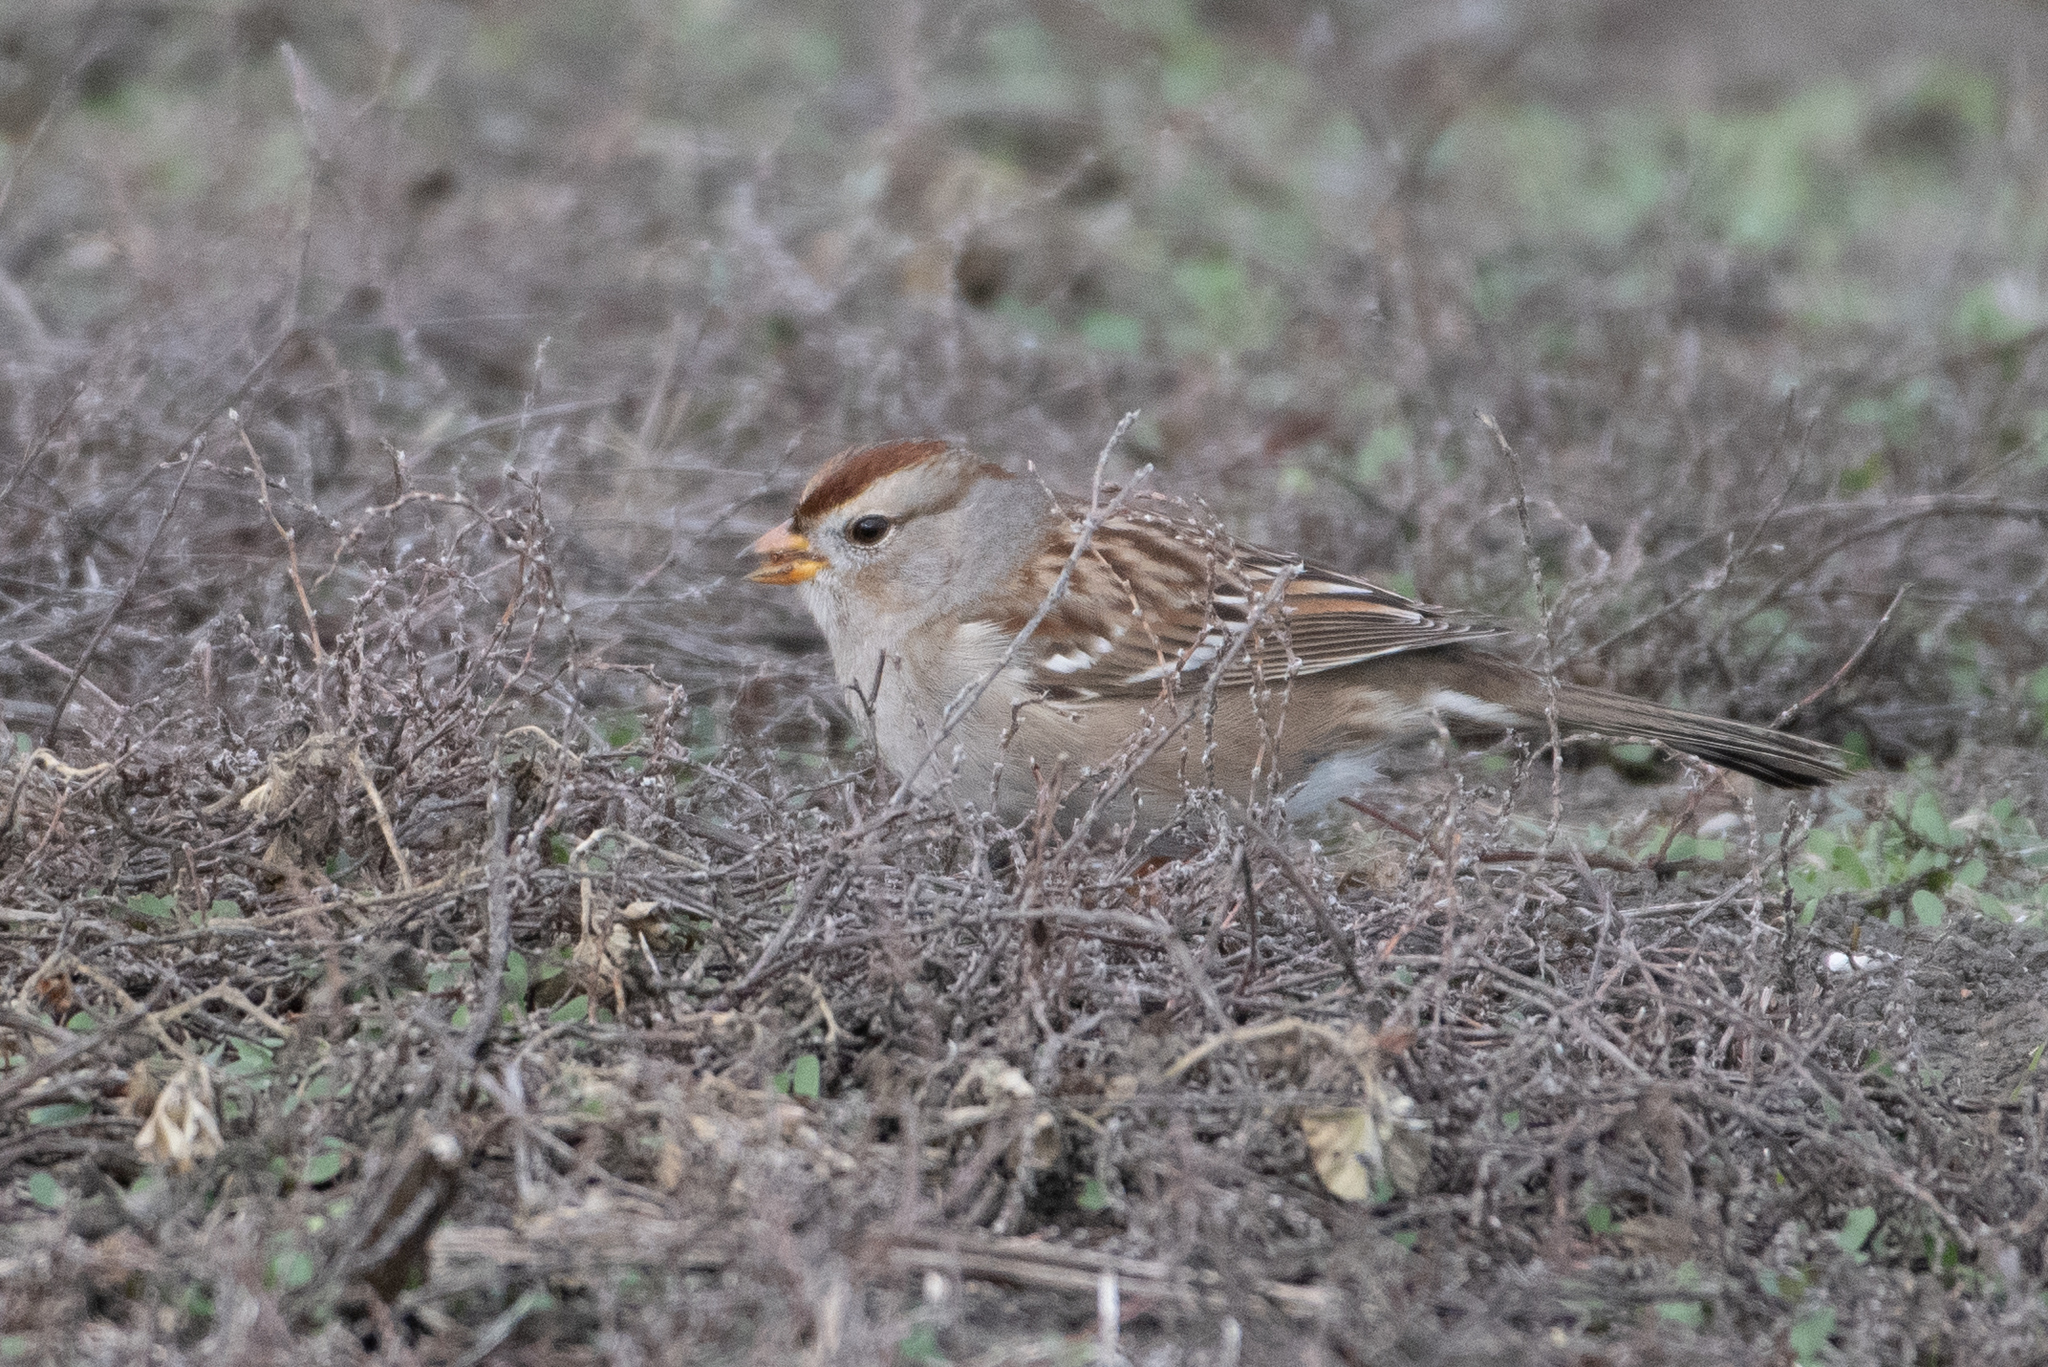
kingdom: Animalia
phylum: Chordata
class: Aves
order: Passeriformes
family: Passerellidae
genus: Zonotrichia
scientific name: Zonotrichia leucophrys
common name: White-crowned sparrow
